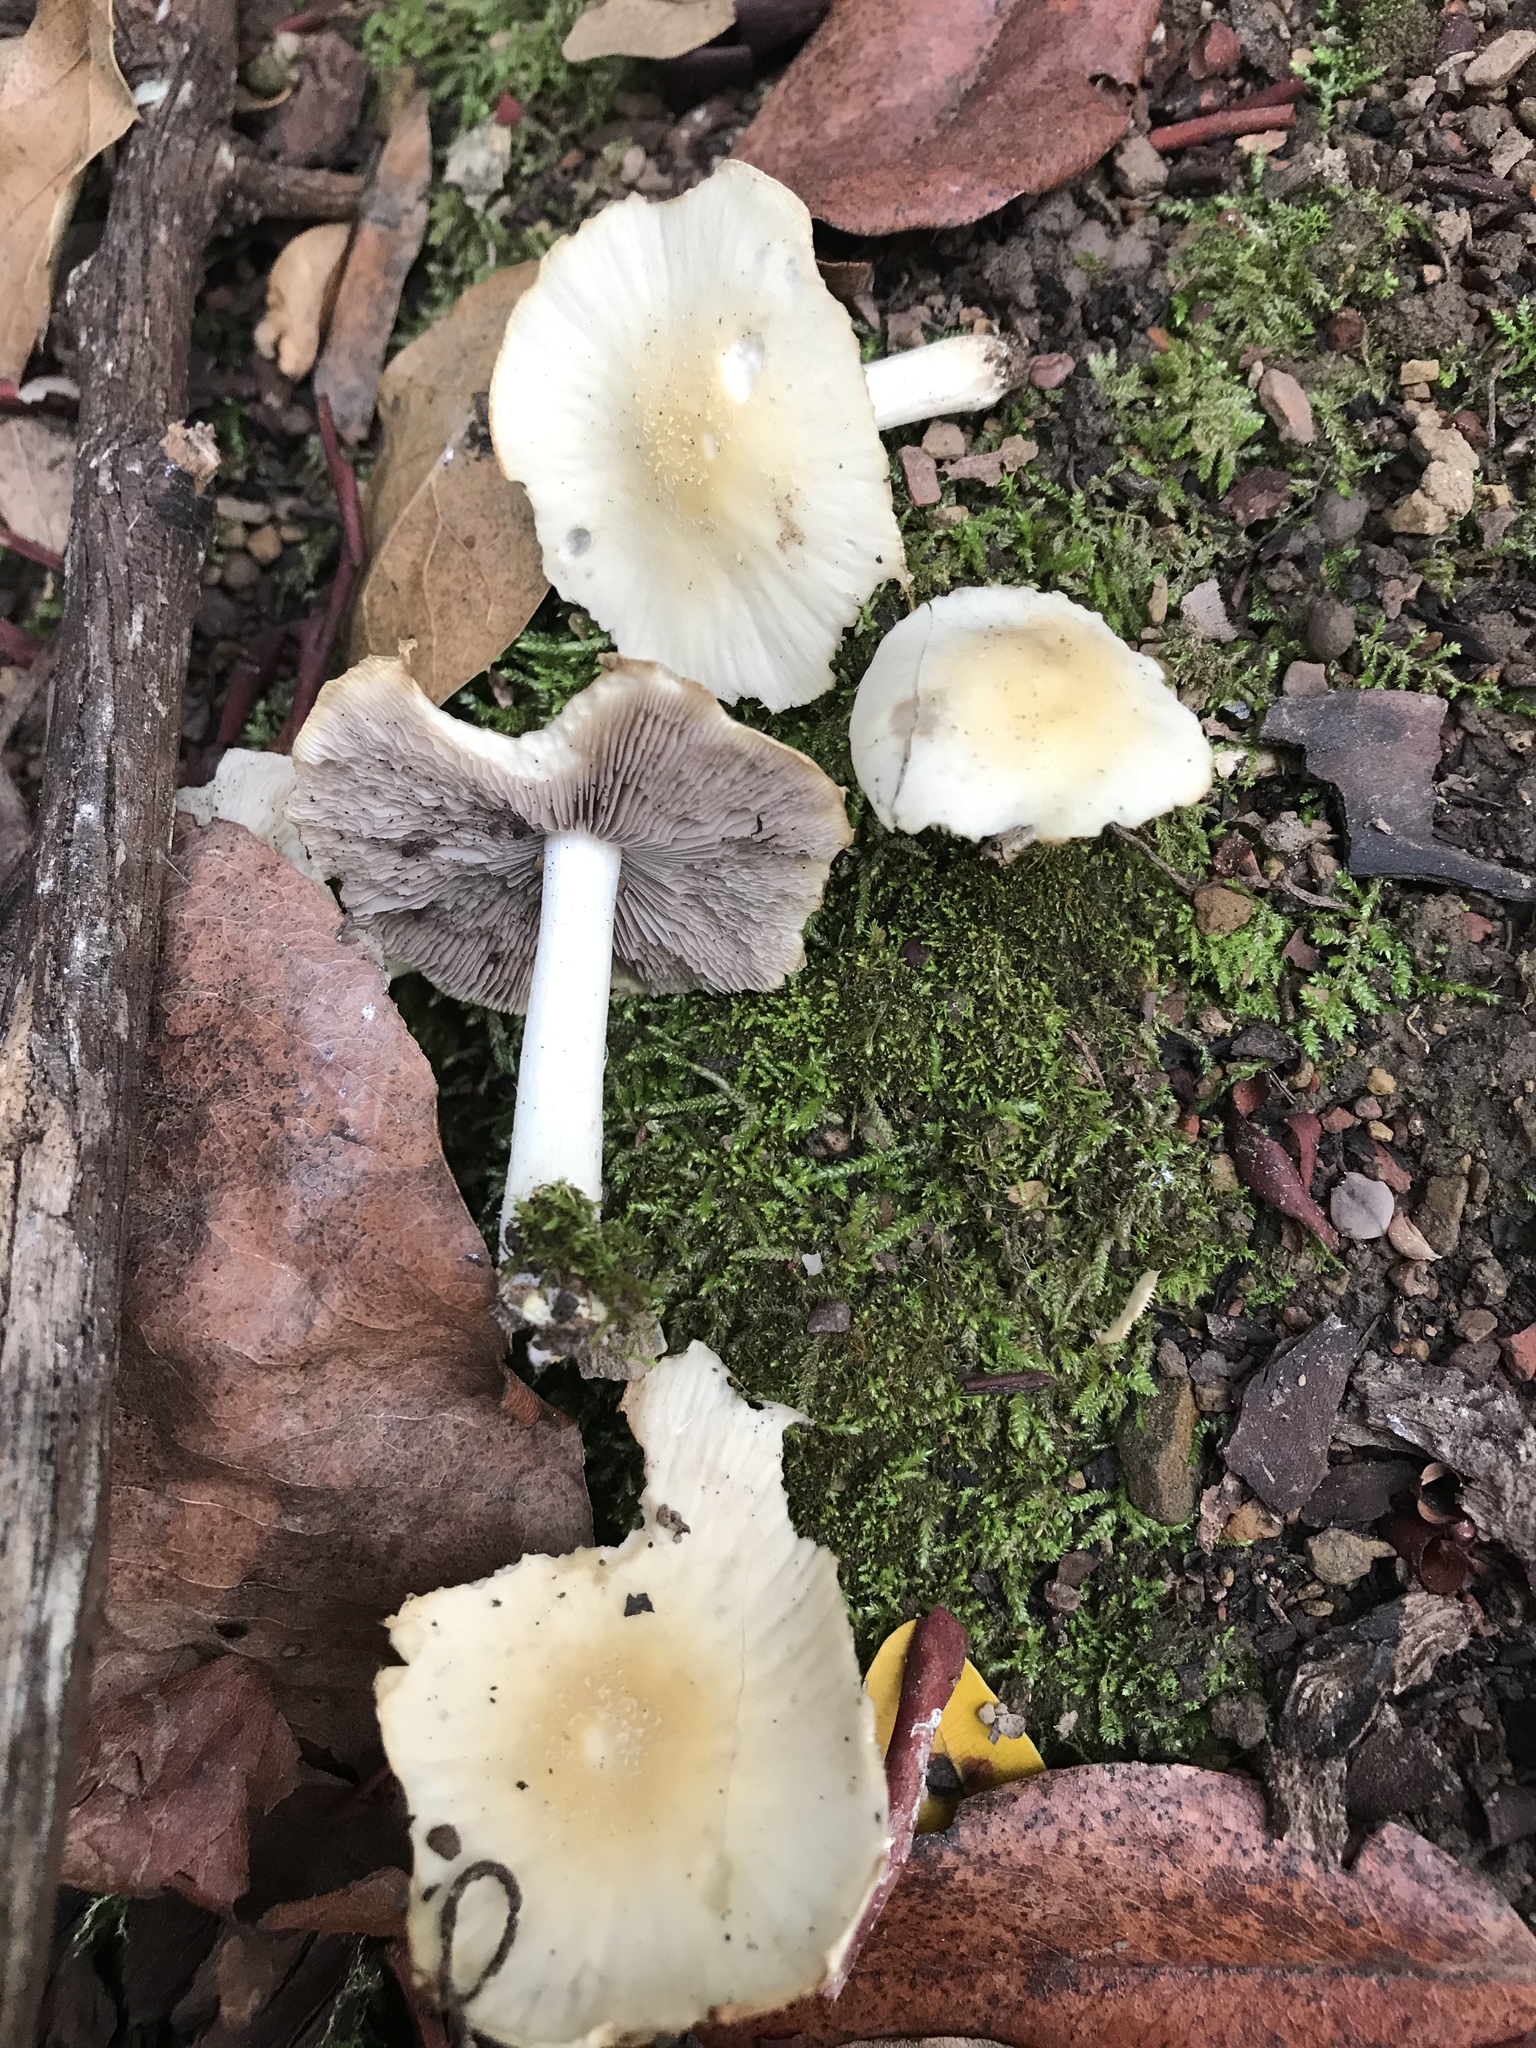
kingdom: Fungi
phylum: Basidiomycota
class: Agaricomycetes
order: Agaricales
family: Psathyrellaceae
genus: Candolleomyces
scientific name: Candolleomyces candolleanus
